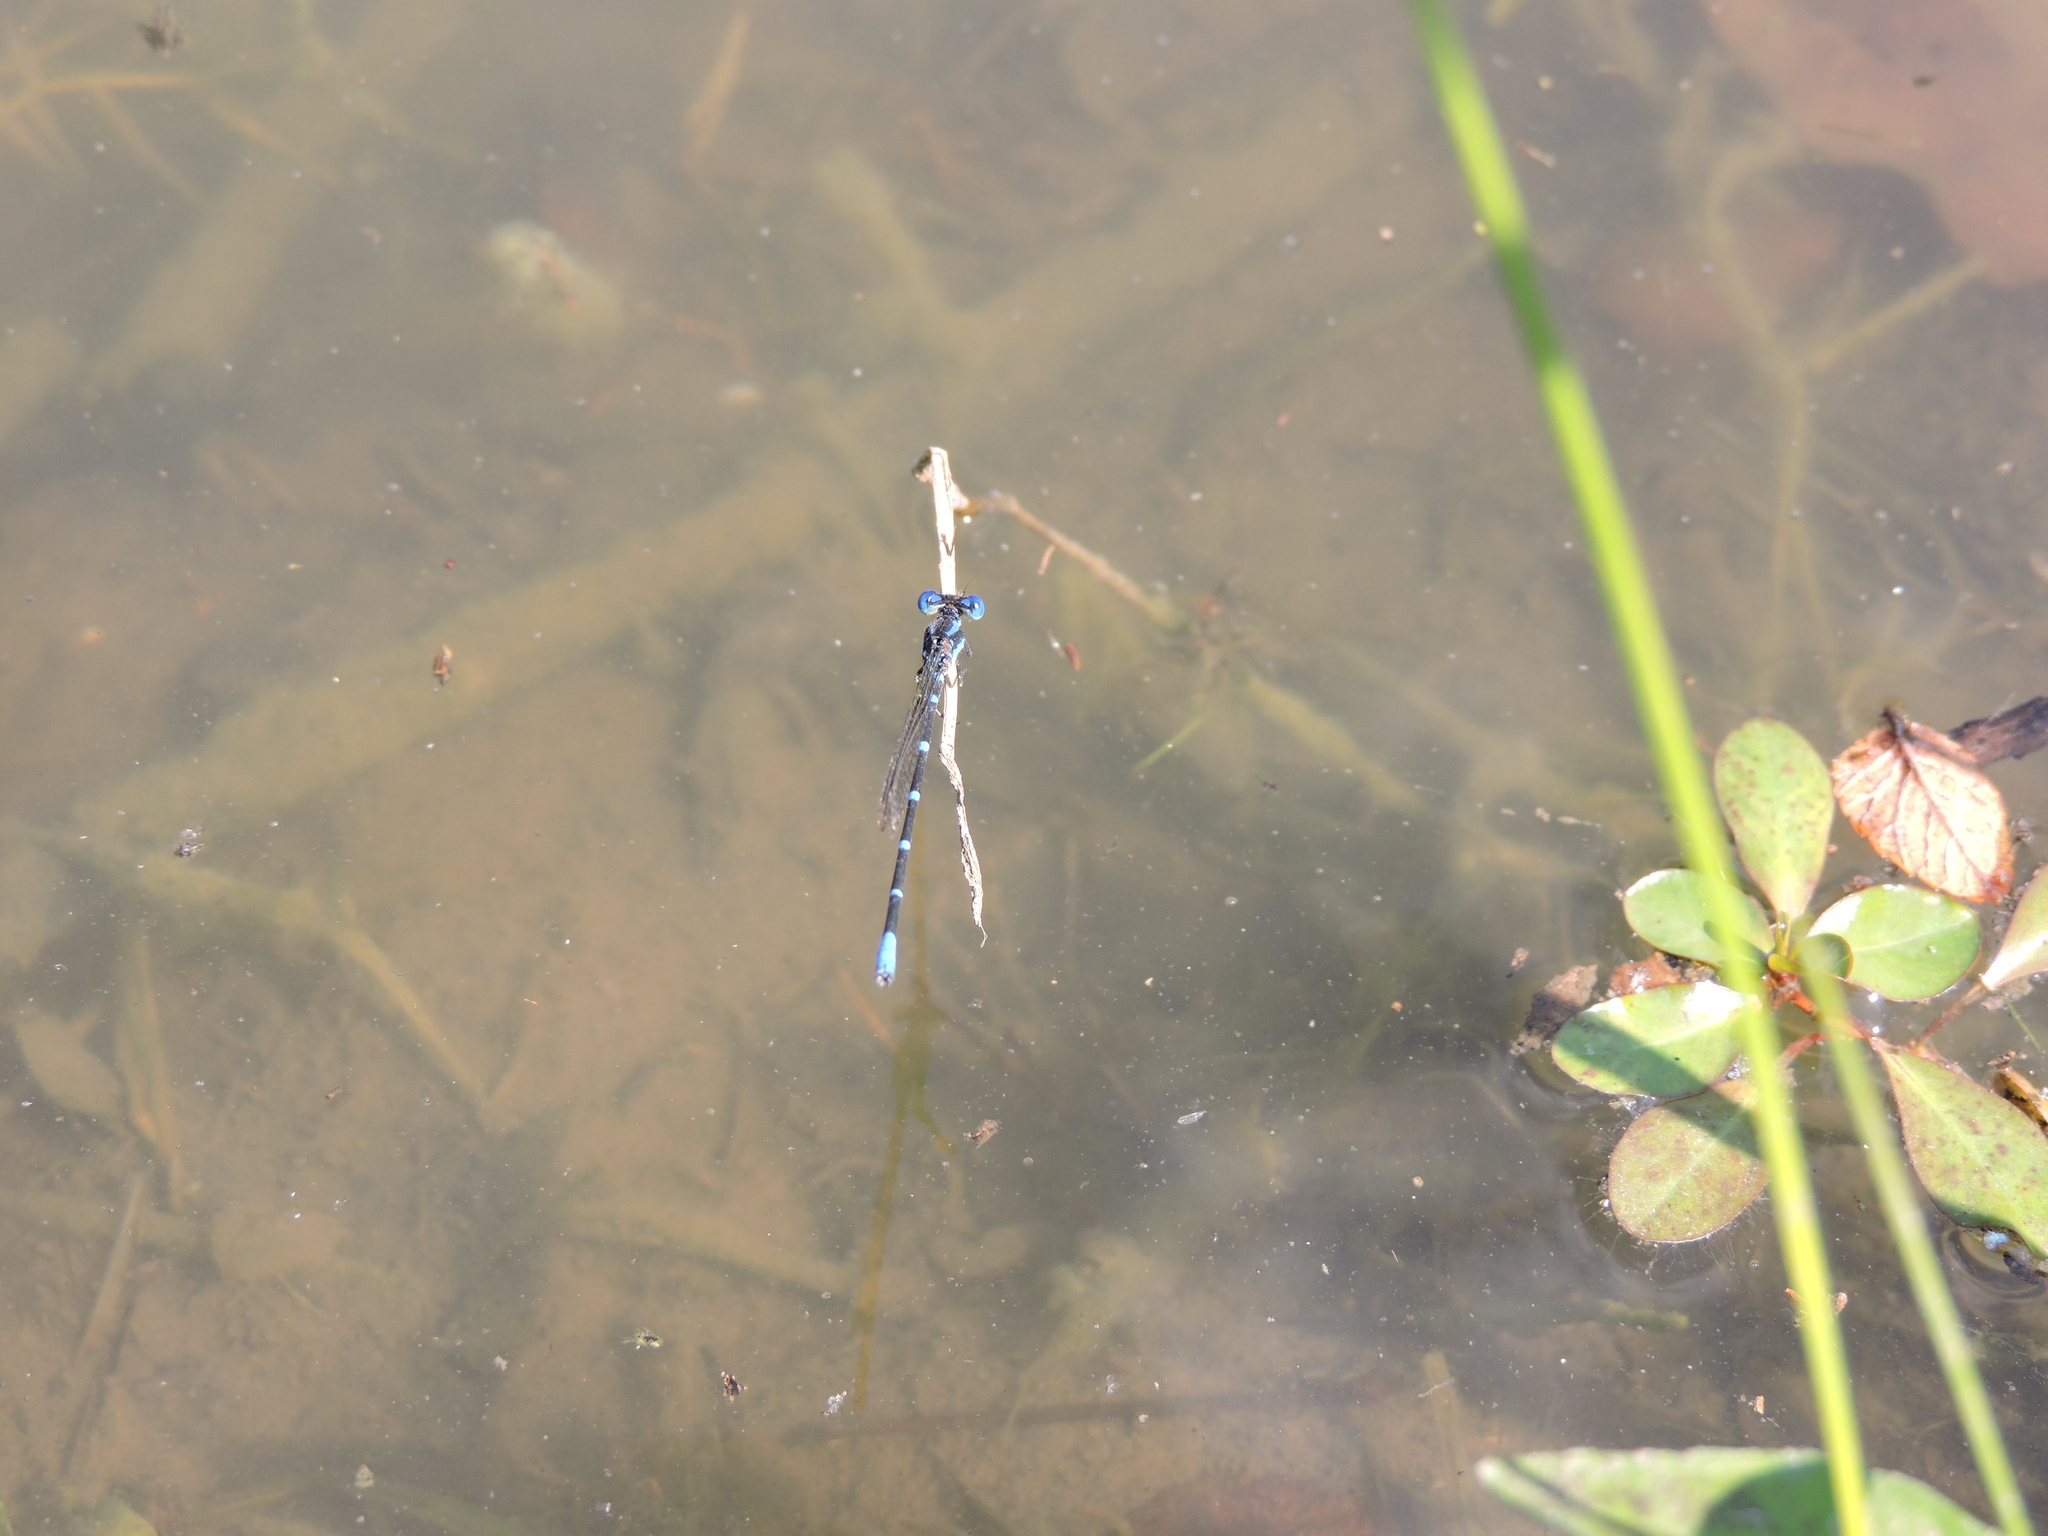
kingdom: Animalia
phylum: Arthropoda
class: Insecta
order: Odonata
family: Coenagrionidae
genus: Argia
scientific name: Argia sedula
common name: Blue-ringed dancer
